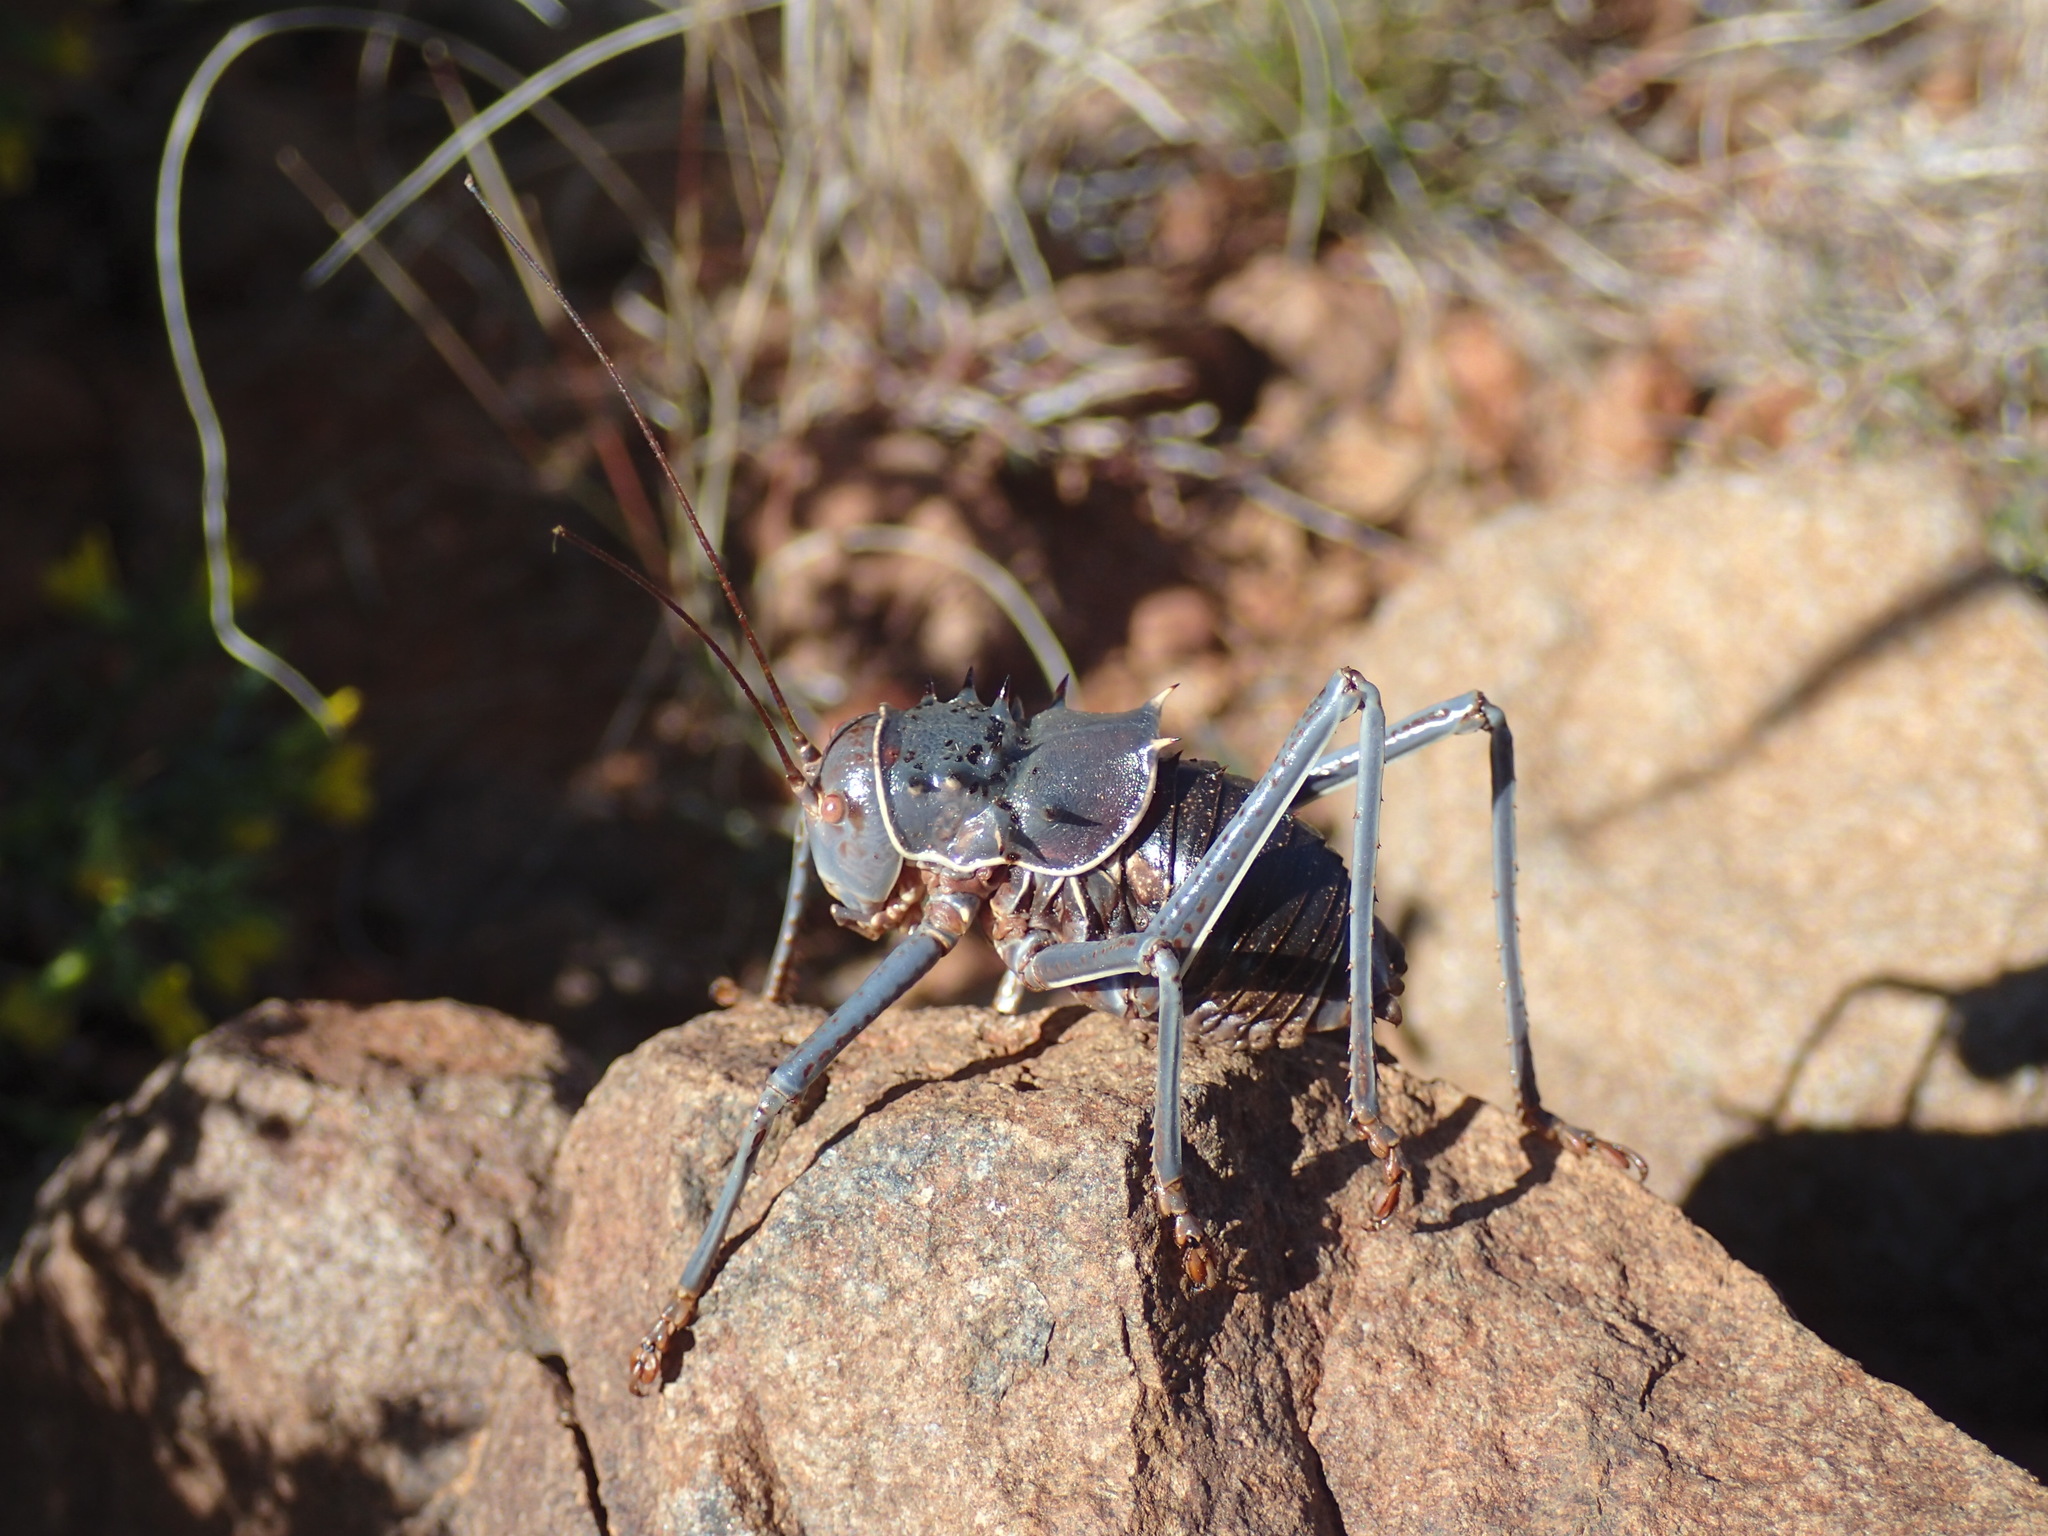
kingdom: Animalia
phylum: Arthropoda
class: Insecta
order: Orthoptera
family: Tettigoniidae
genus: Acanthoplus
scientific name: Acanthoplus discoidalis
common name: Armoured katydid
